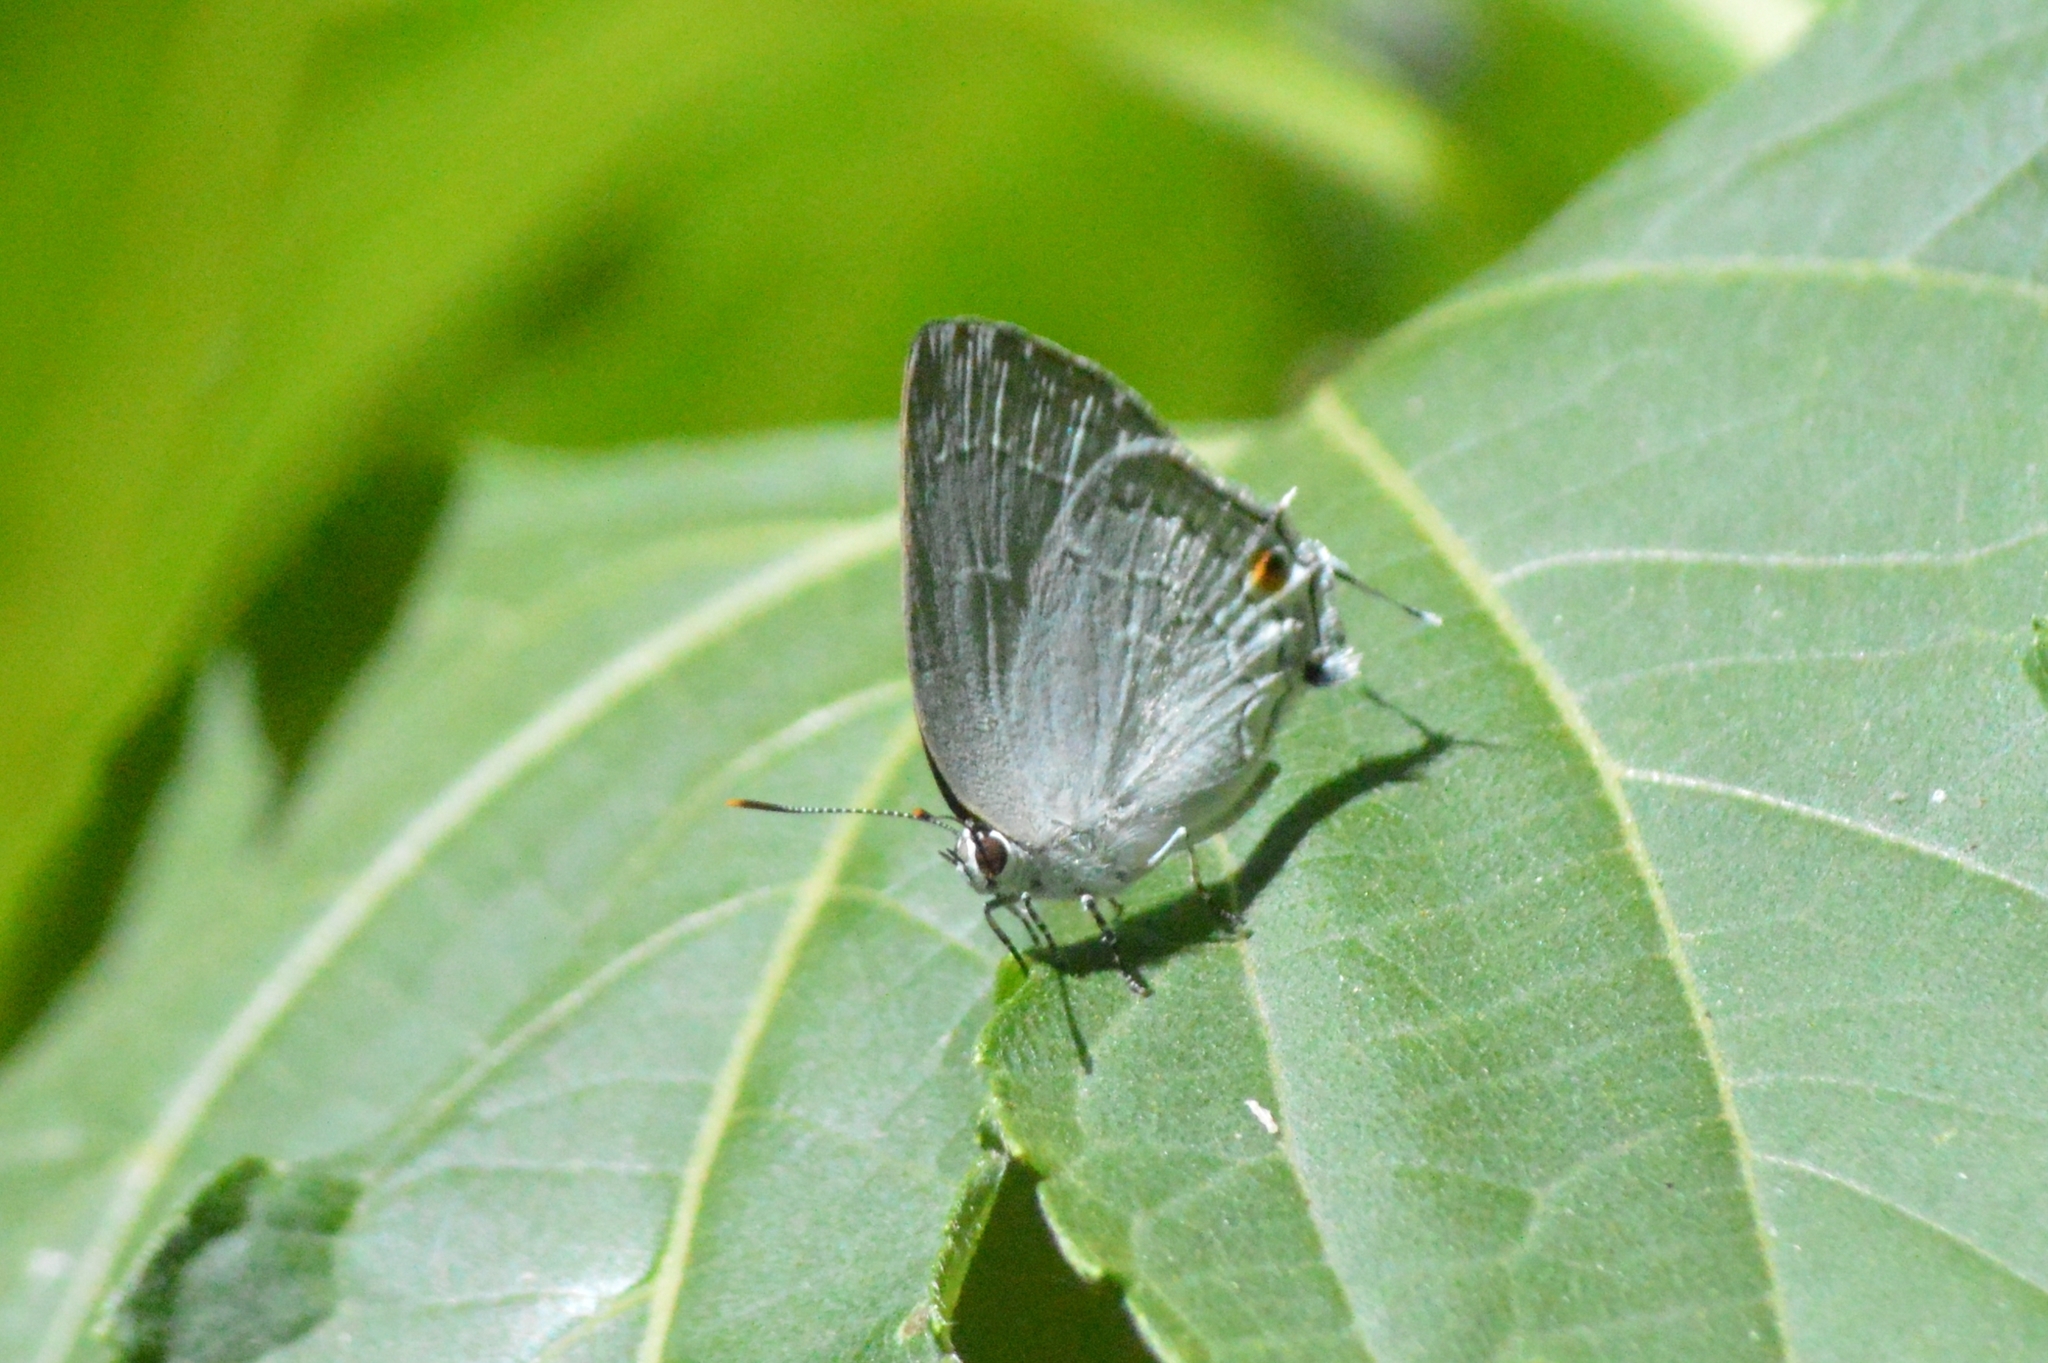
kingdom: Animalia
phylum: Arthropoda
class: Insecta
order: Lepidoptera
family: Lycaenidae
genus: Strephonota
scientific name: Strephonota tephraeus
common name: Pearly-gray hairstreak
